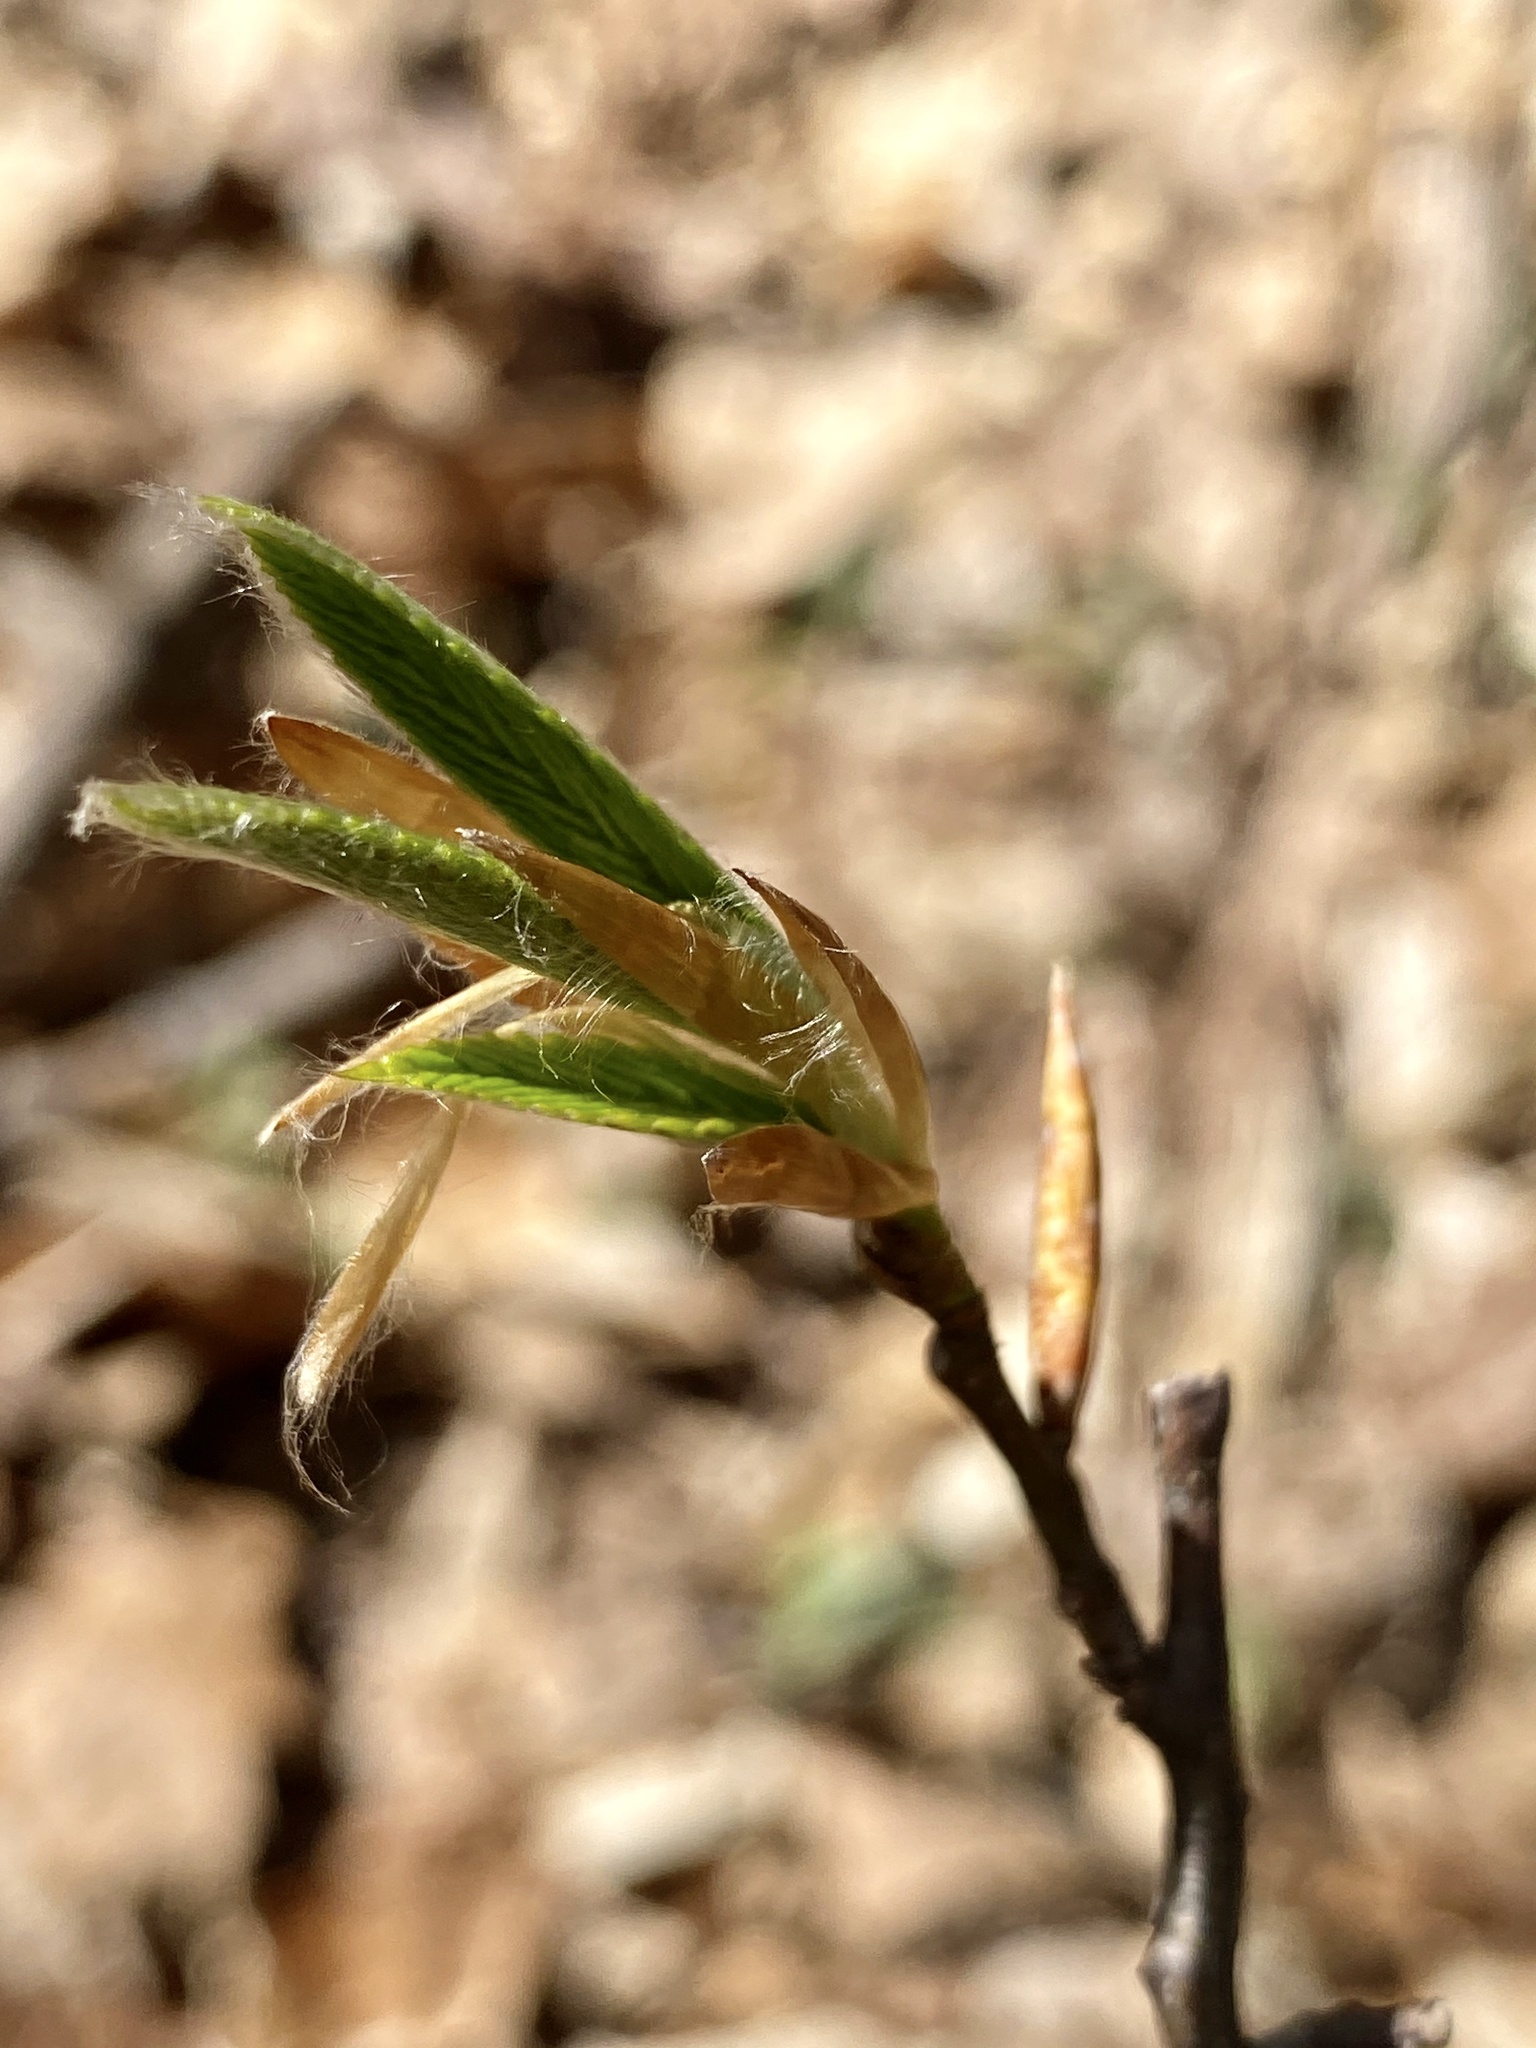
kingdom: Plantae
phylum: Tracheophyta
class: Magnoliopsida
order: Fagales
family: Fagaceae
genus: Fagus
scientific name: Fagus grandifolia
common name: American beech
